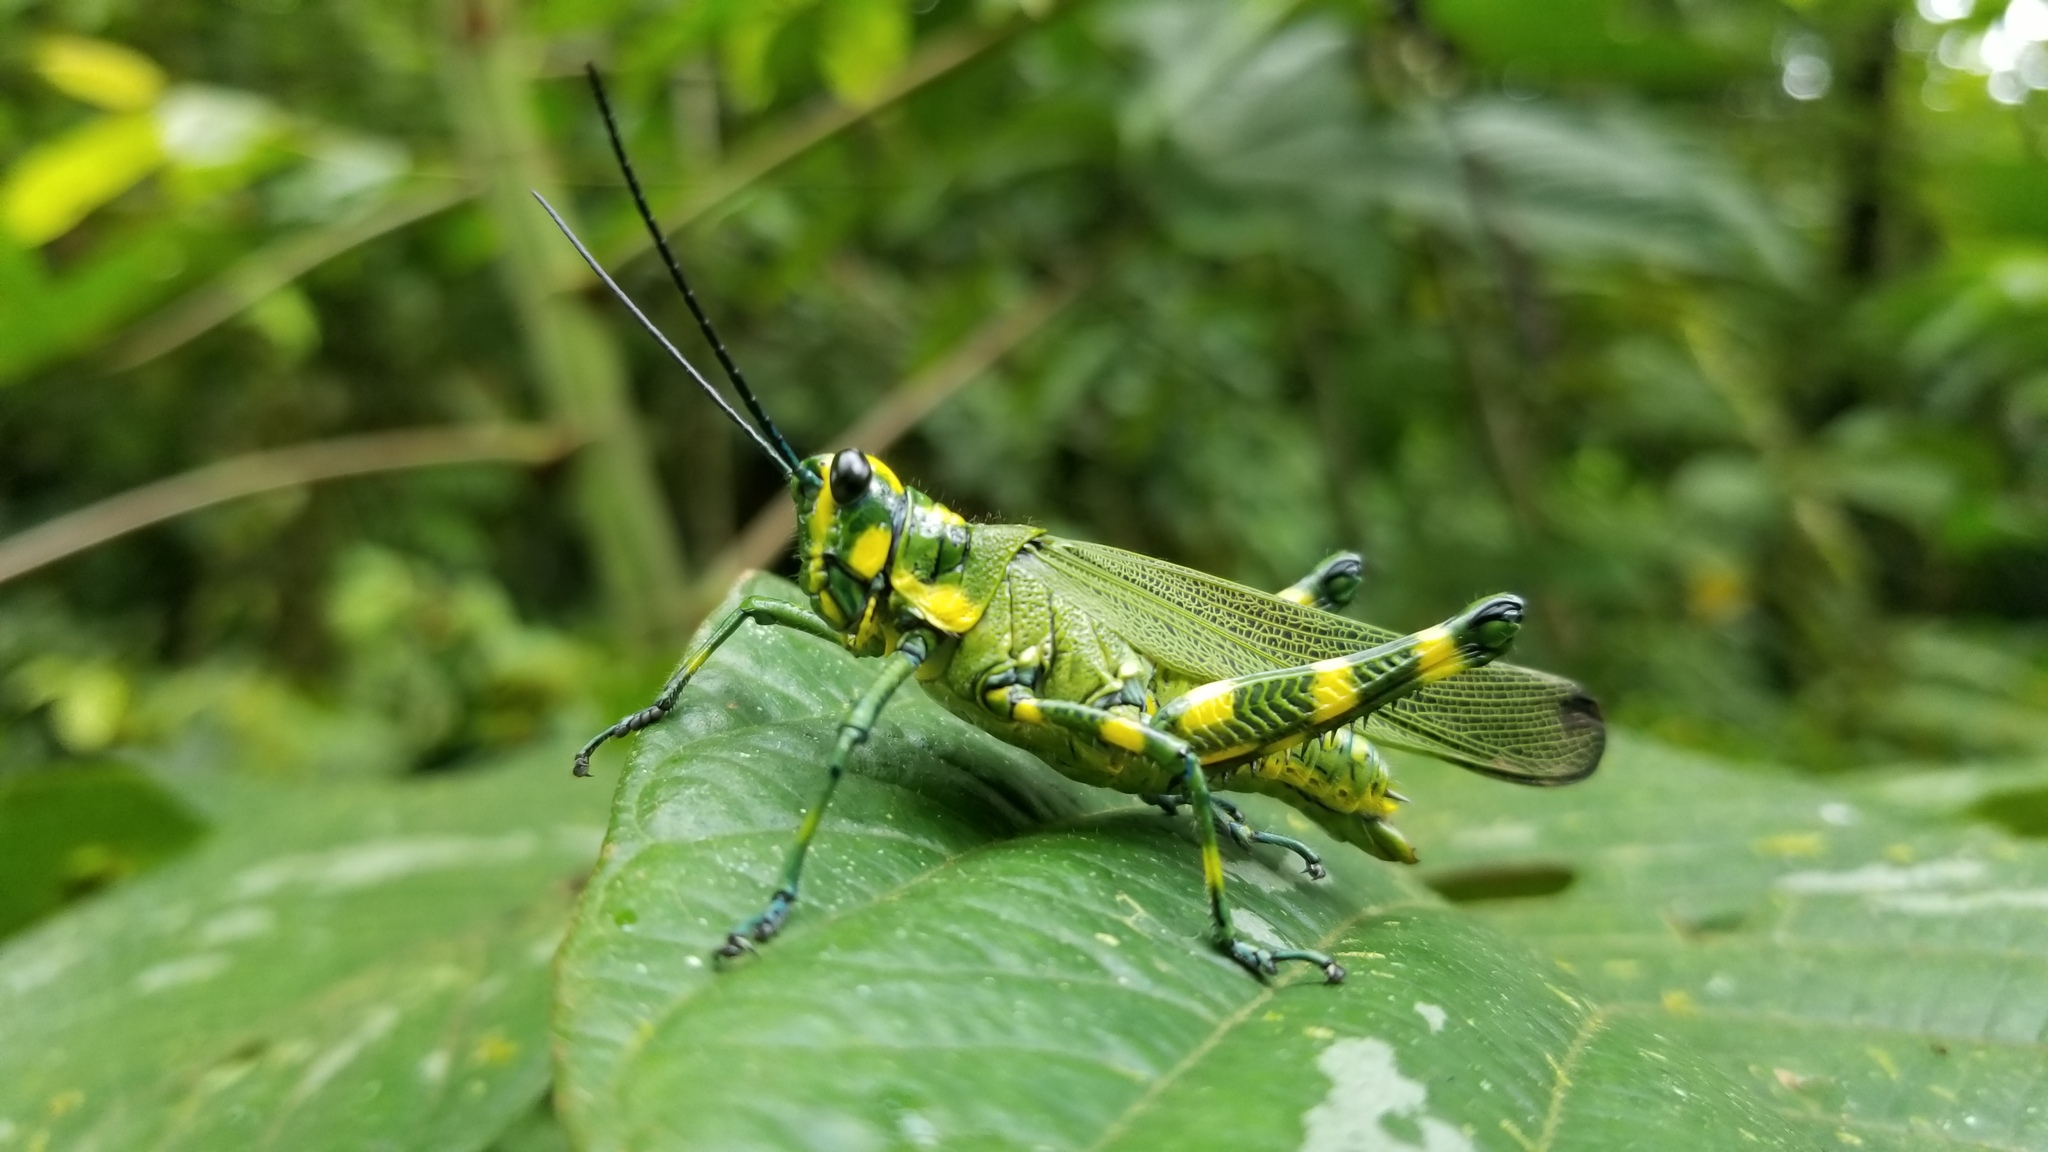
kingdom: Animalia
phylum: Arthropoda
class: Insecta
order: Orthoptera
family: Romaleidae
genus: Chromacris
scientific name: Chromacris psittacus
